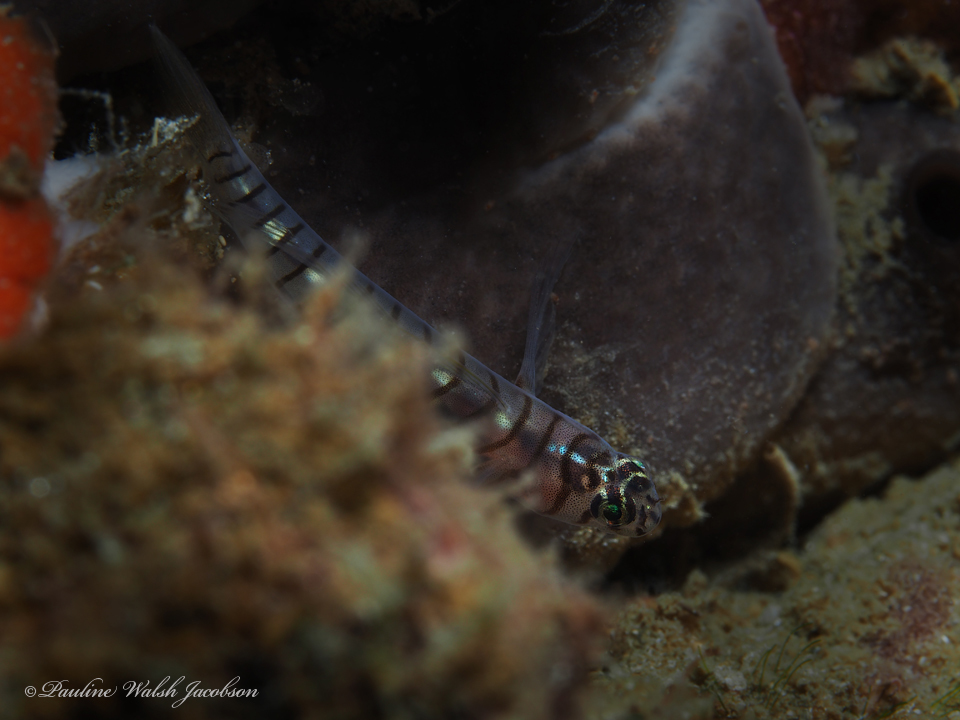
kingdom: Animalia
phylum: Chordata
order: Perciformes
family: Gobiidae
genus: Tigrigobius
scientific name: Tigrigobius macrodon
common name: Tiger goby
